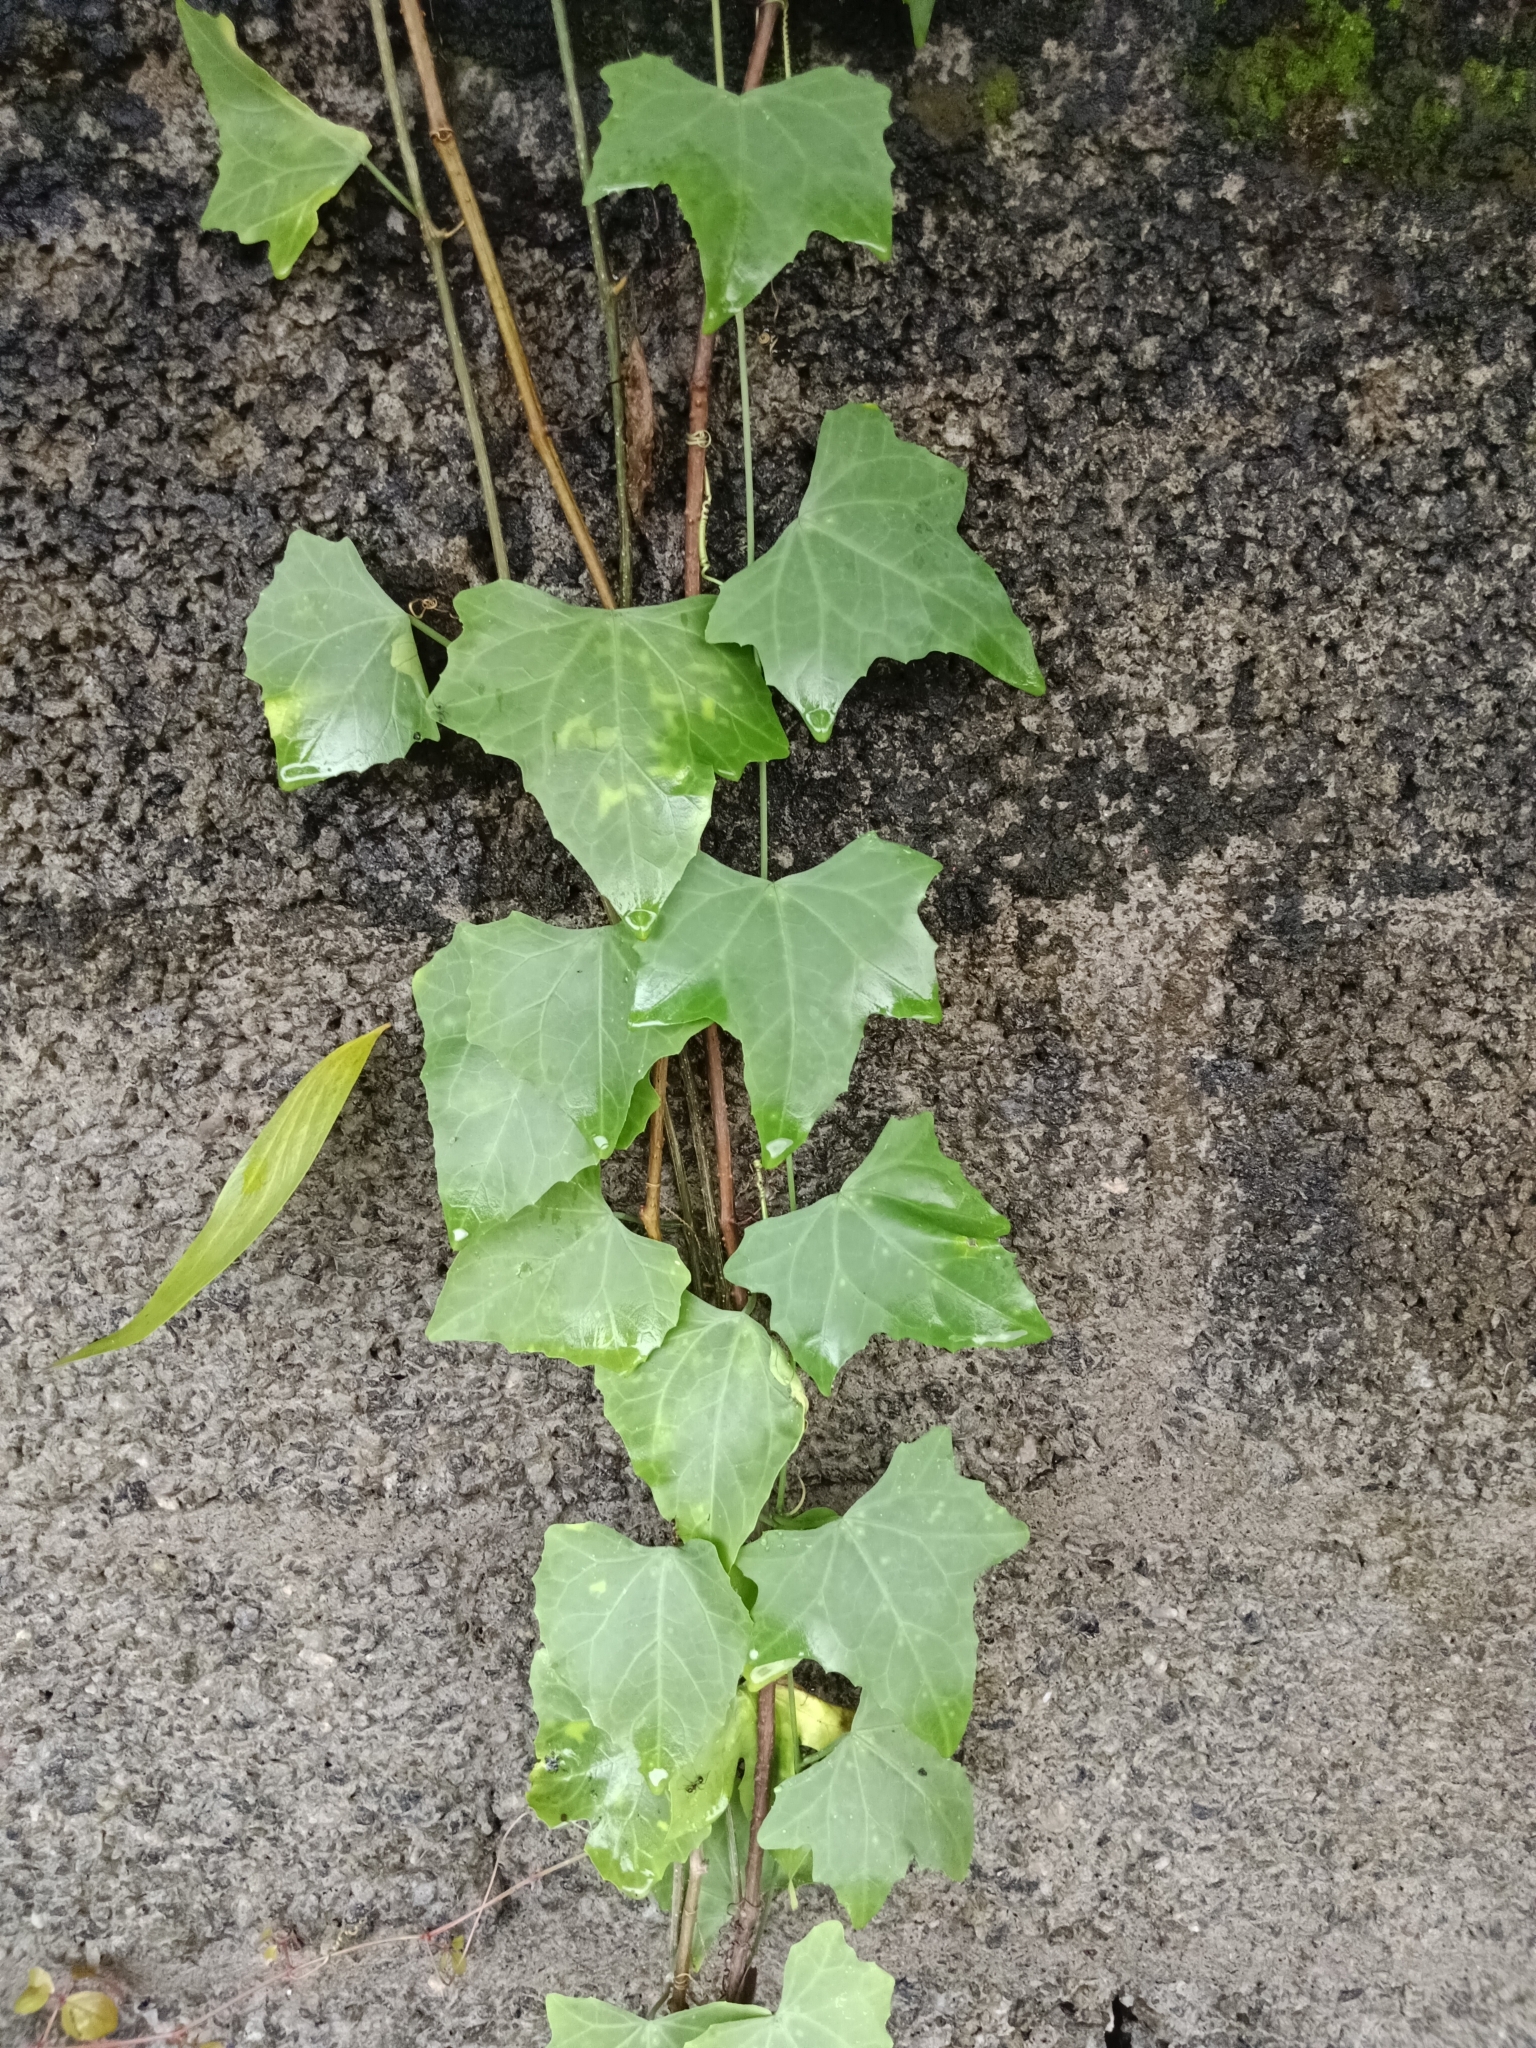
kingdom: Plantae
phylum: Tracheophyta
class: Magnoliopsida
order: Cucurbitales
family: Cucurbitaceae
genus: Coccinia
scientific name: Coccinia grandis
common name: Ivy gourd
